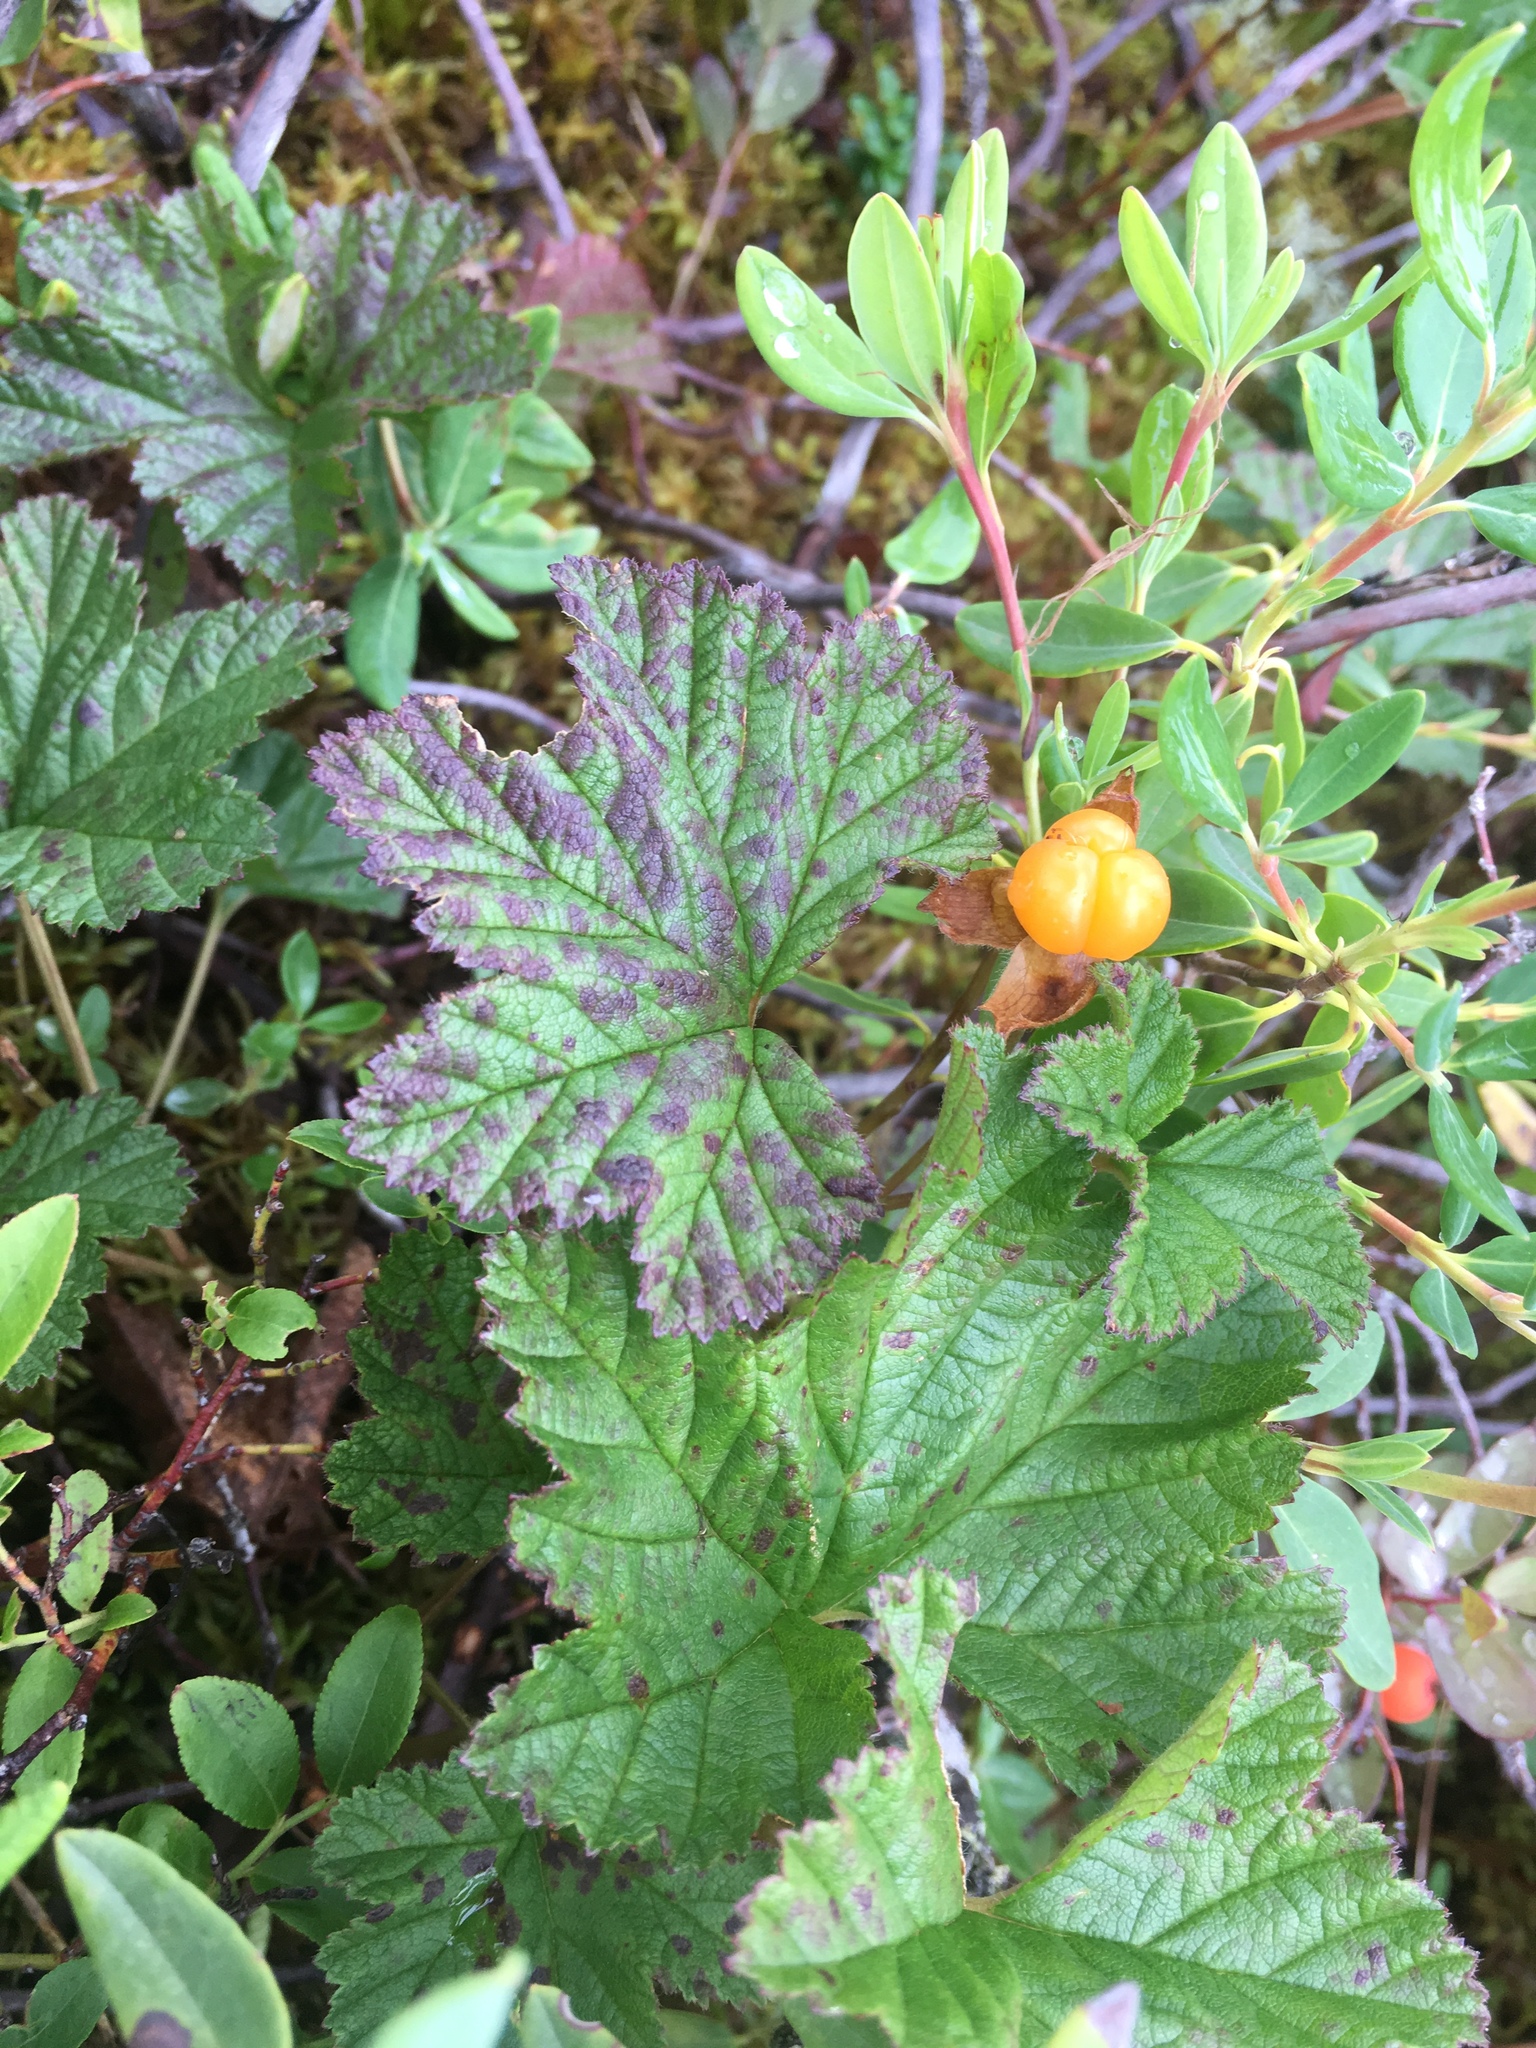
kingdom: Plantae
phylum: Tracheophyta
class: Magnoliopsida
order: Rosales
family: Rosaceae
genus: Rubus
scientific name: Rubus chamaemorus
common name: Cloudberry
